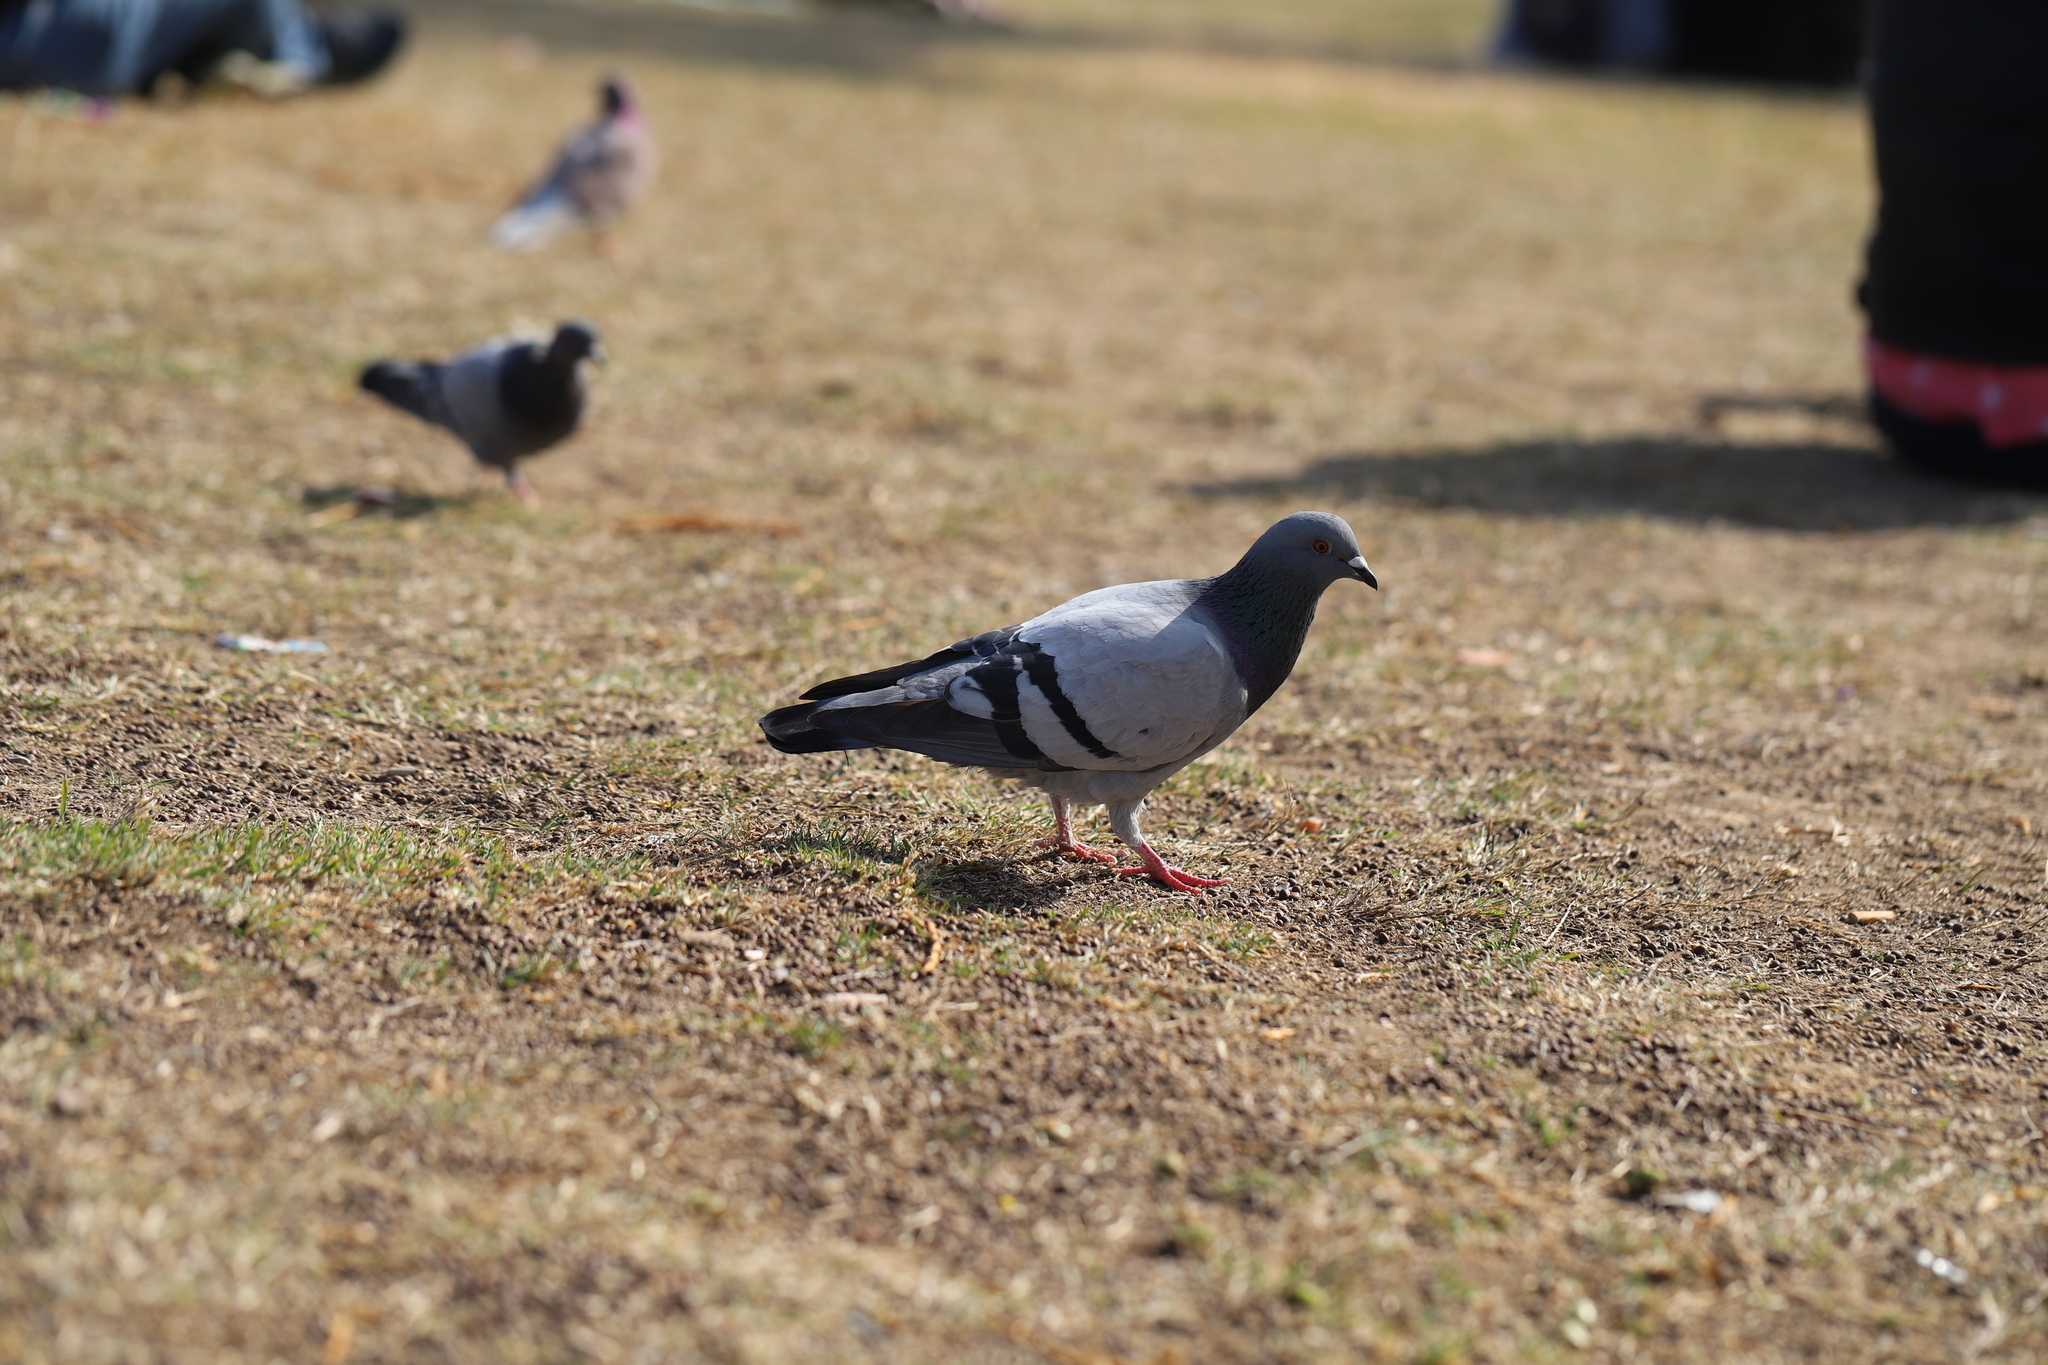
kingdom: Animalia
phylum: Chordata
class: Aves
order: Columbiformes
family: Columbidae
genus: Columba
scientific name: Columba livia
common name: Rock pigeon
